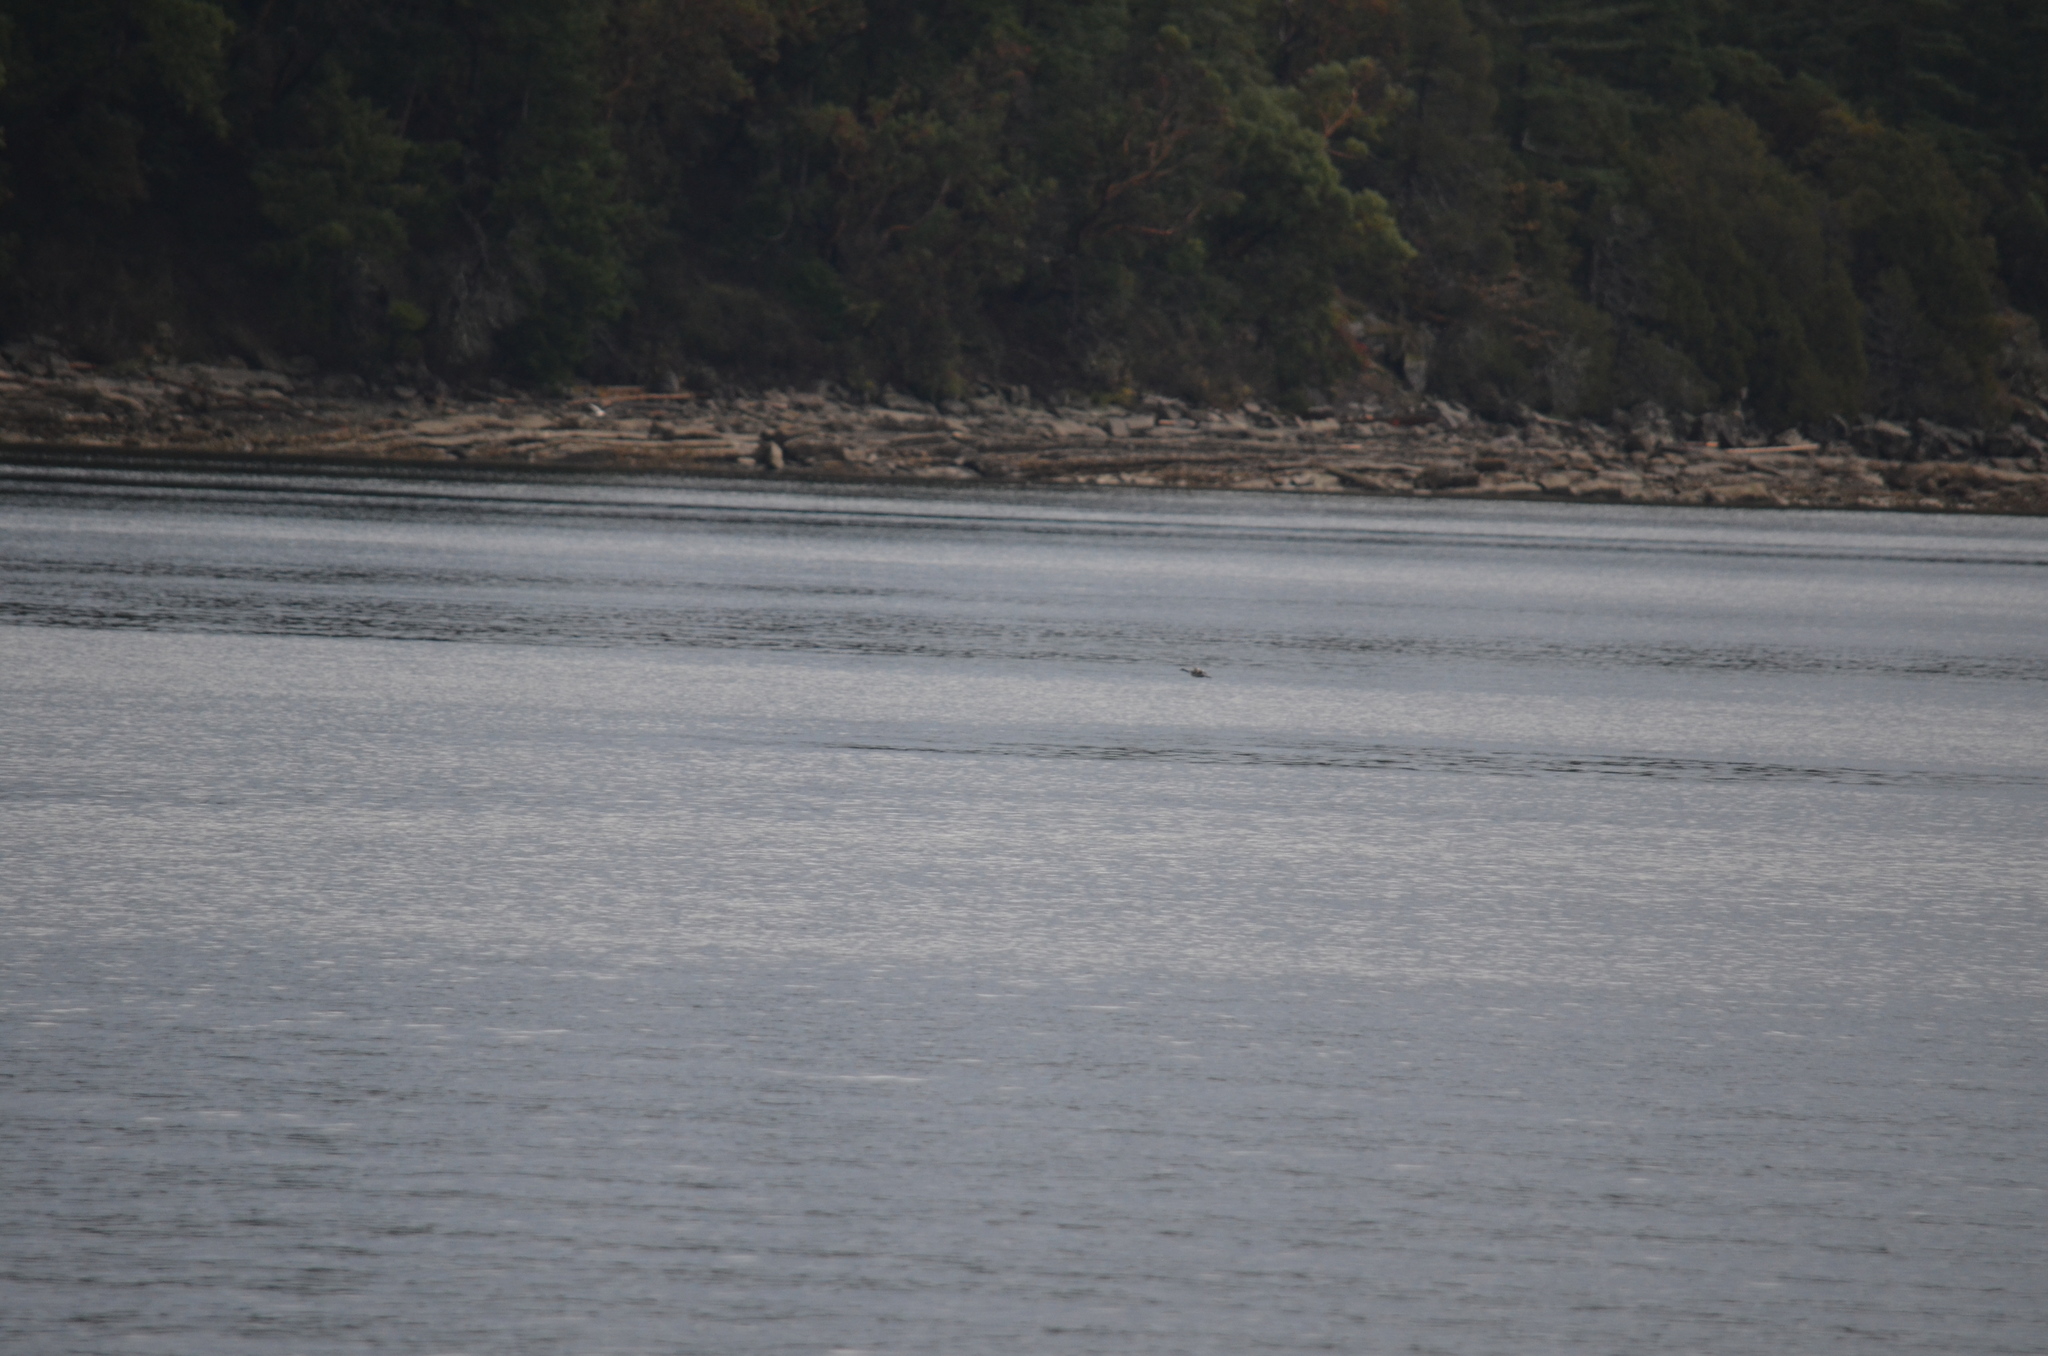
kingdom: Animalia
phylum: Chordata
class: Aves
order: Anseriformes
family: Anatidae
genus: Branta
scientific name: Branta canadensis
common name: Canada goose
